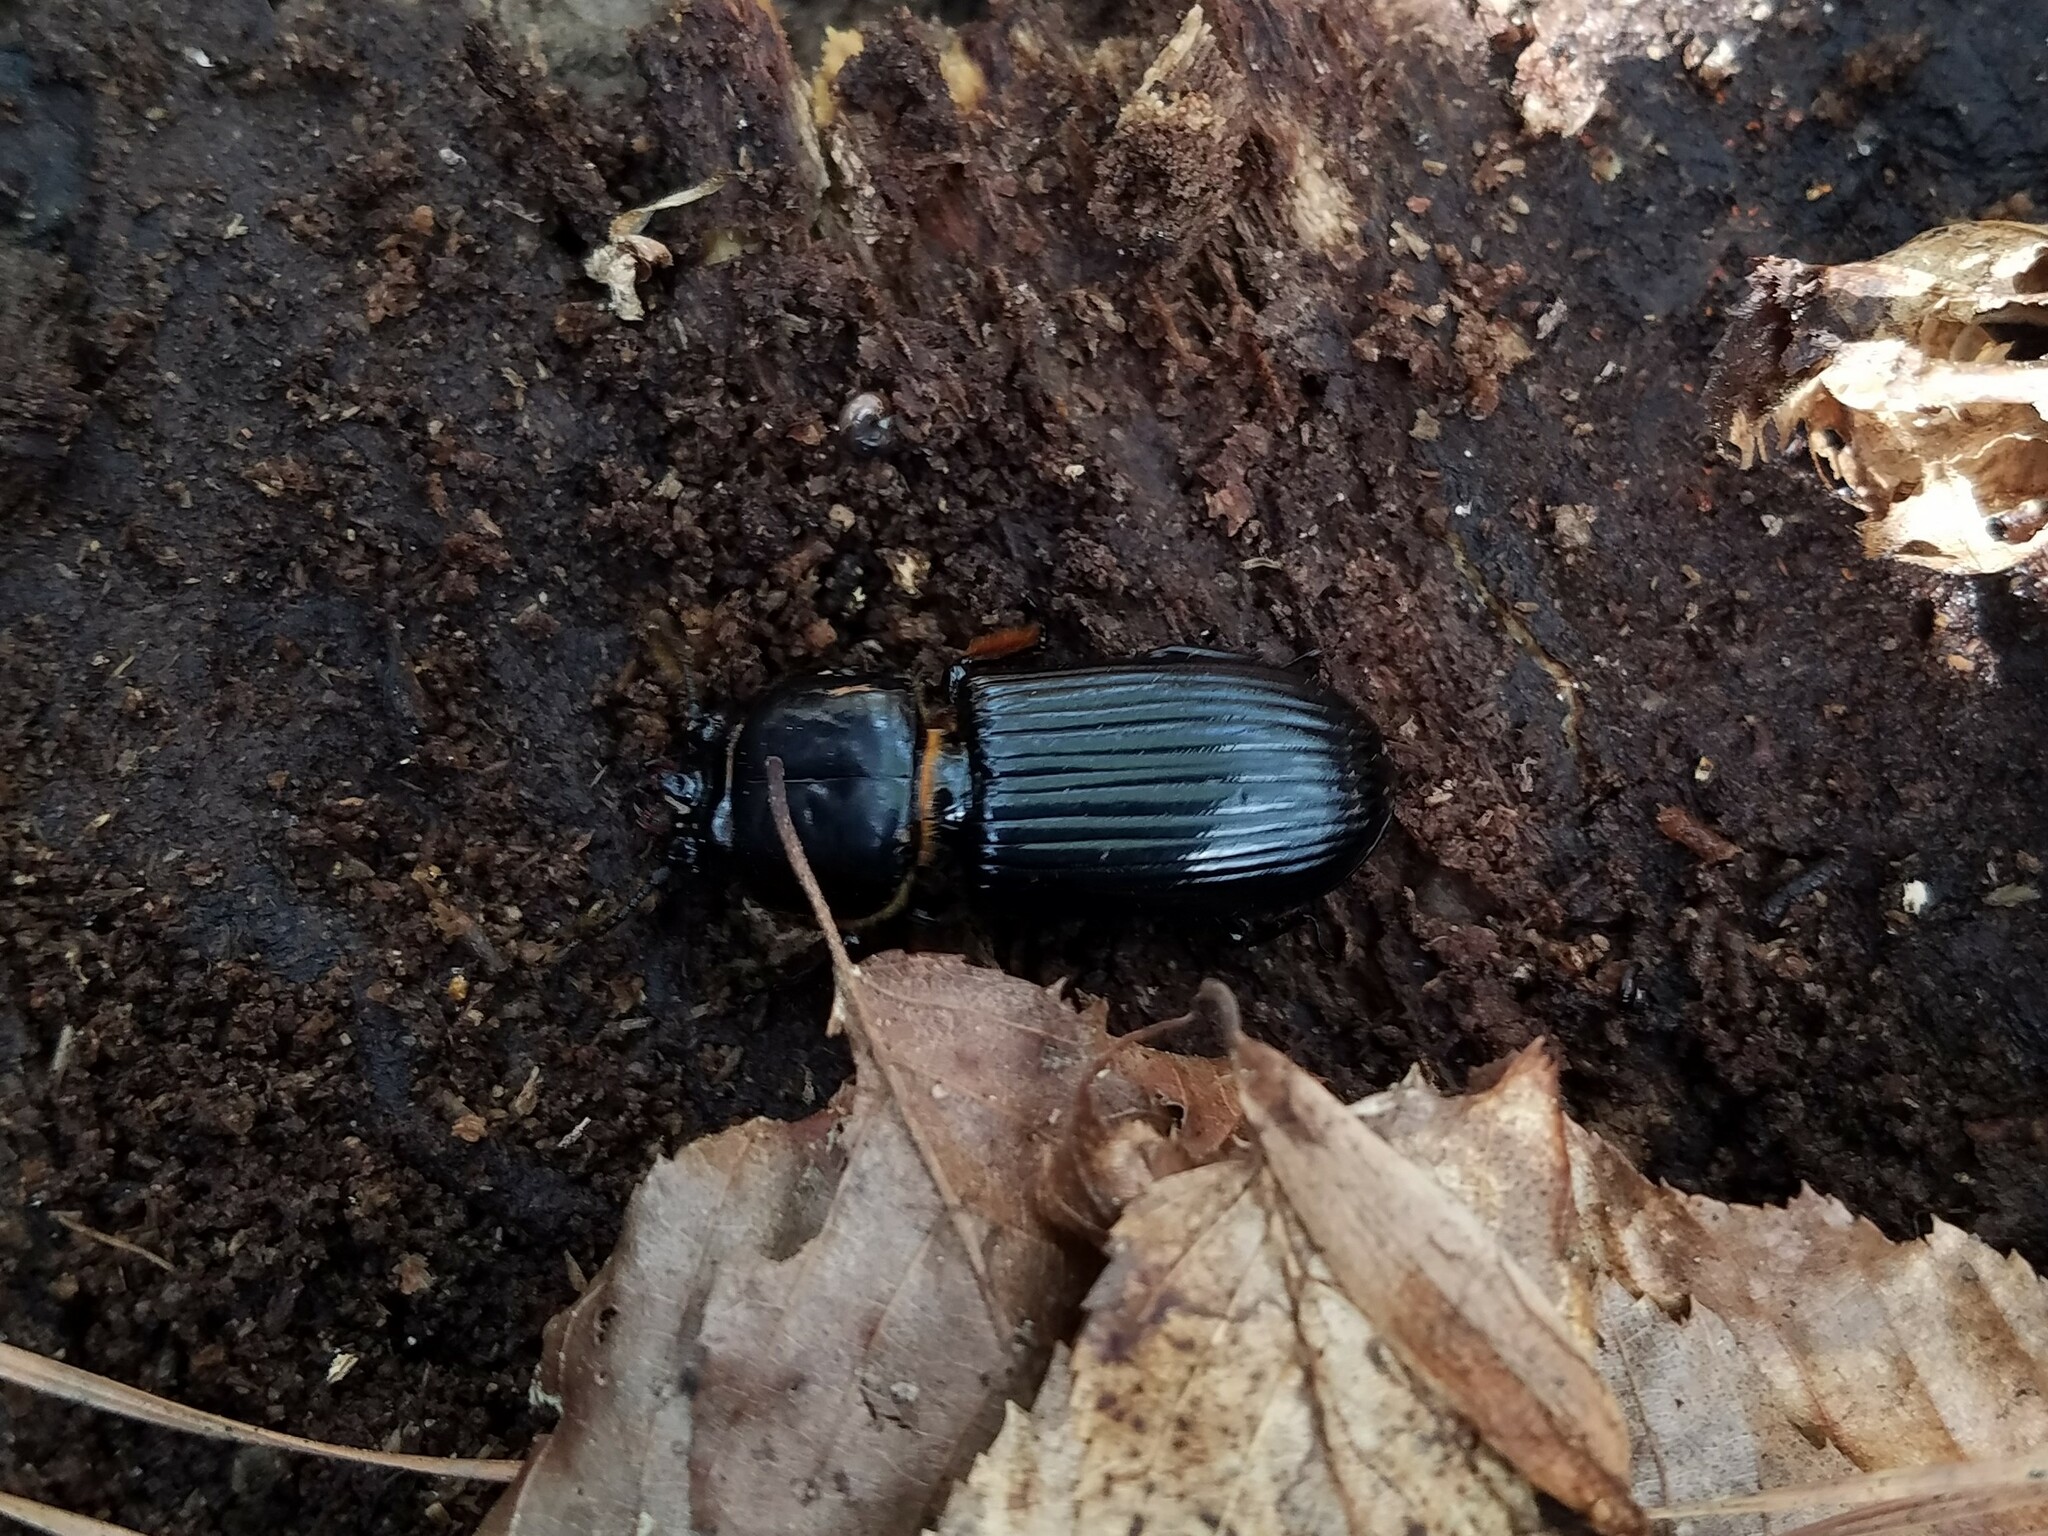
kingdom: Animalia
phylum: Arthropoda
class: Insecta
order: Coleoptera
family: Passalidae
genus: Odontotaenius
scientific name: Odontotaenius disjunctus
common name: Patent leather beetle
